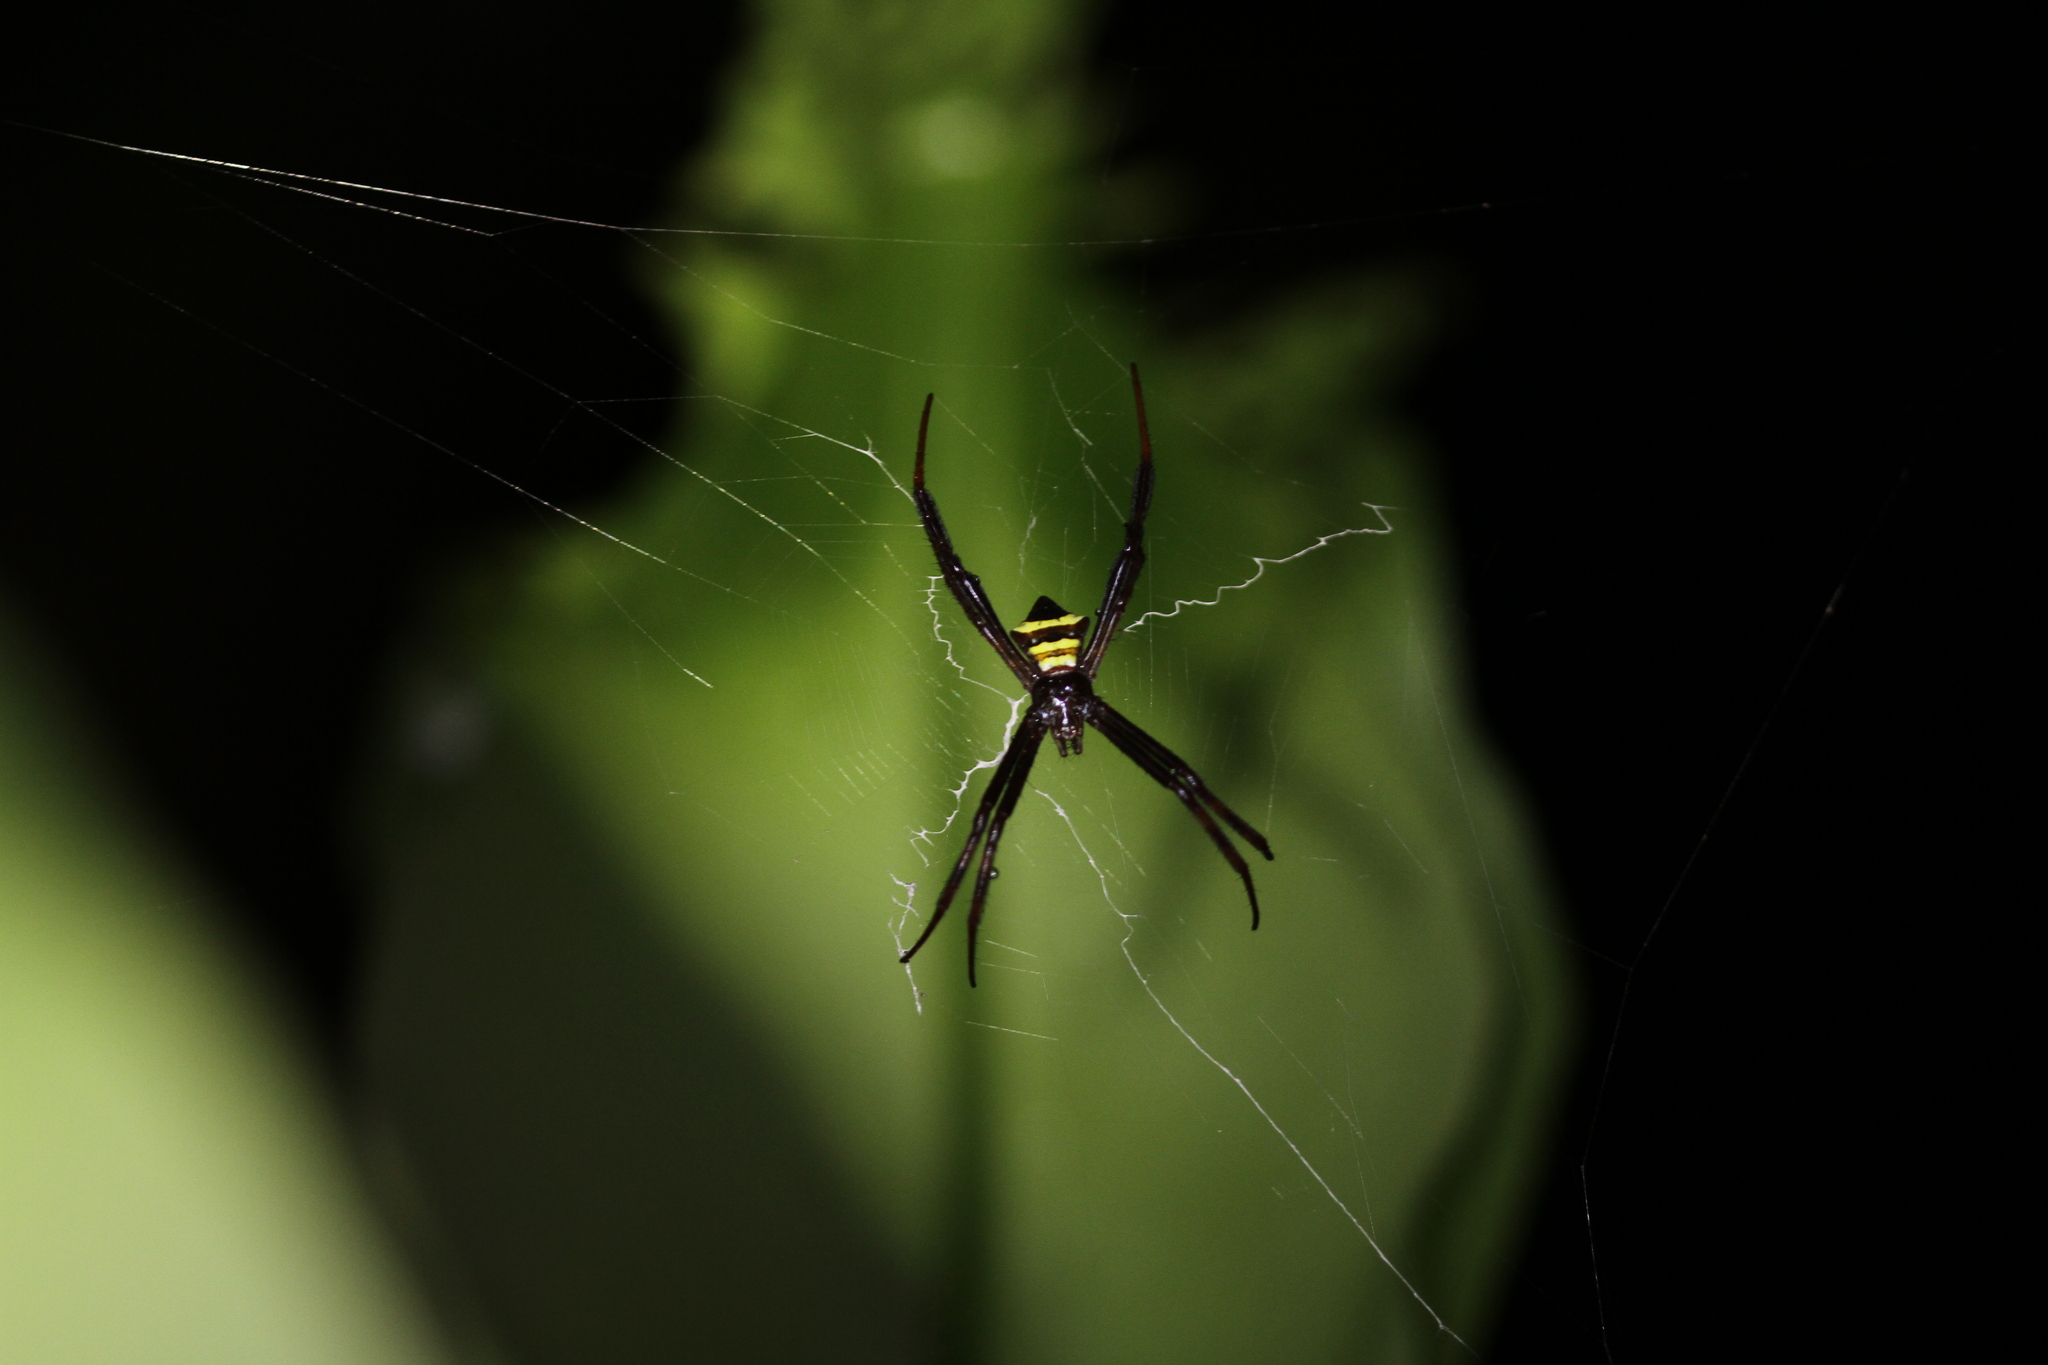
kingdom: Animalia
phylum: Arthropoda
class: Arachnida
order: Araneae
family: Araneidae
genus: Argiope
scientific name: Argiope reinwardti
